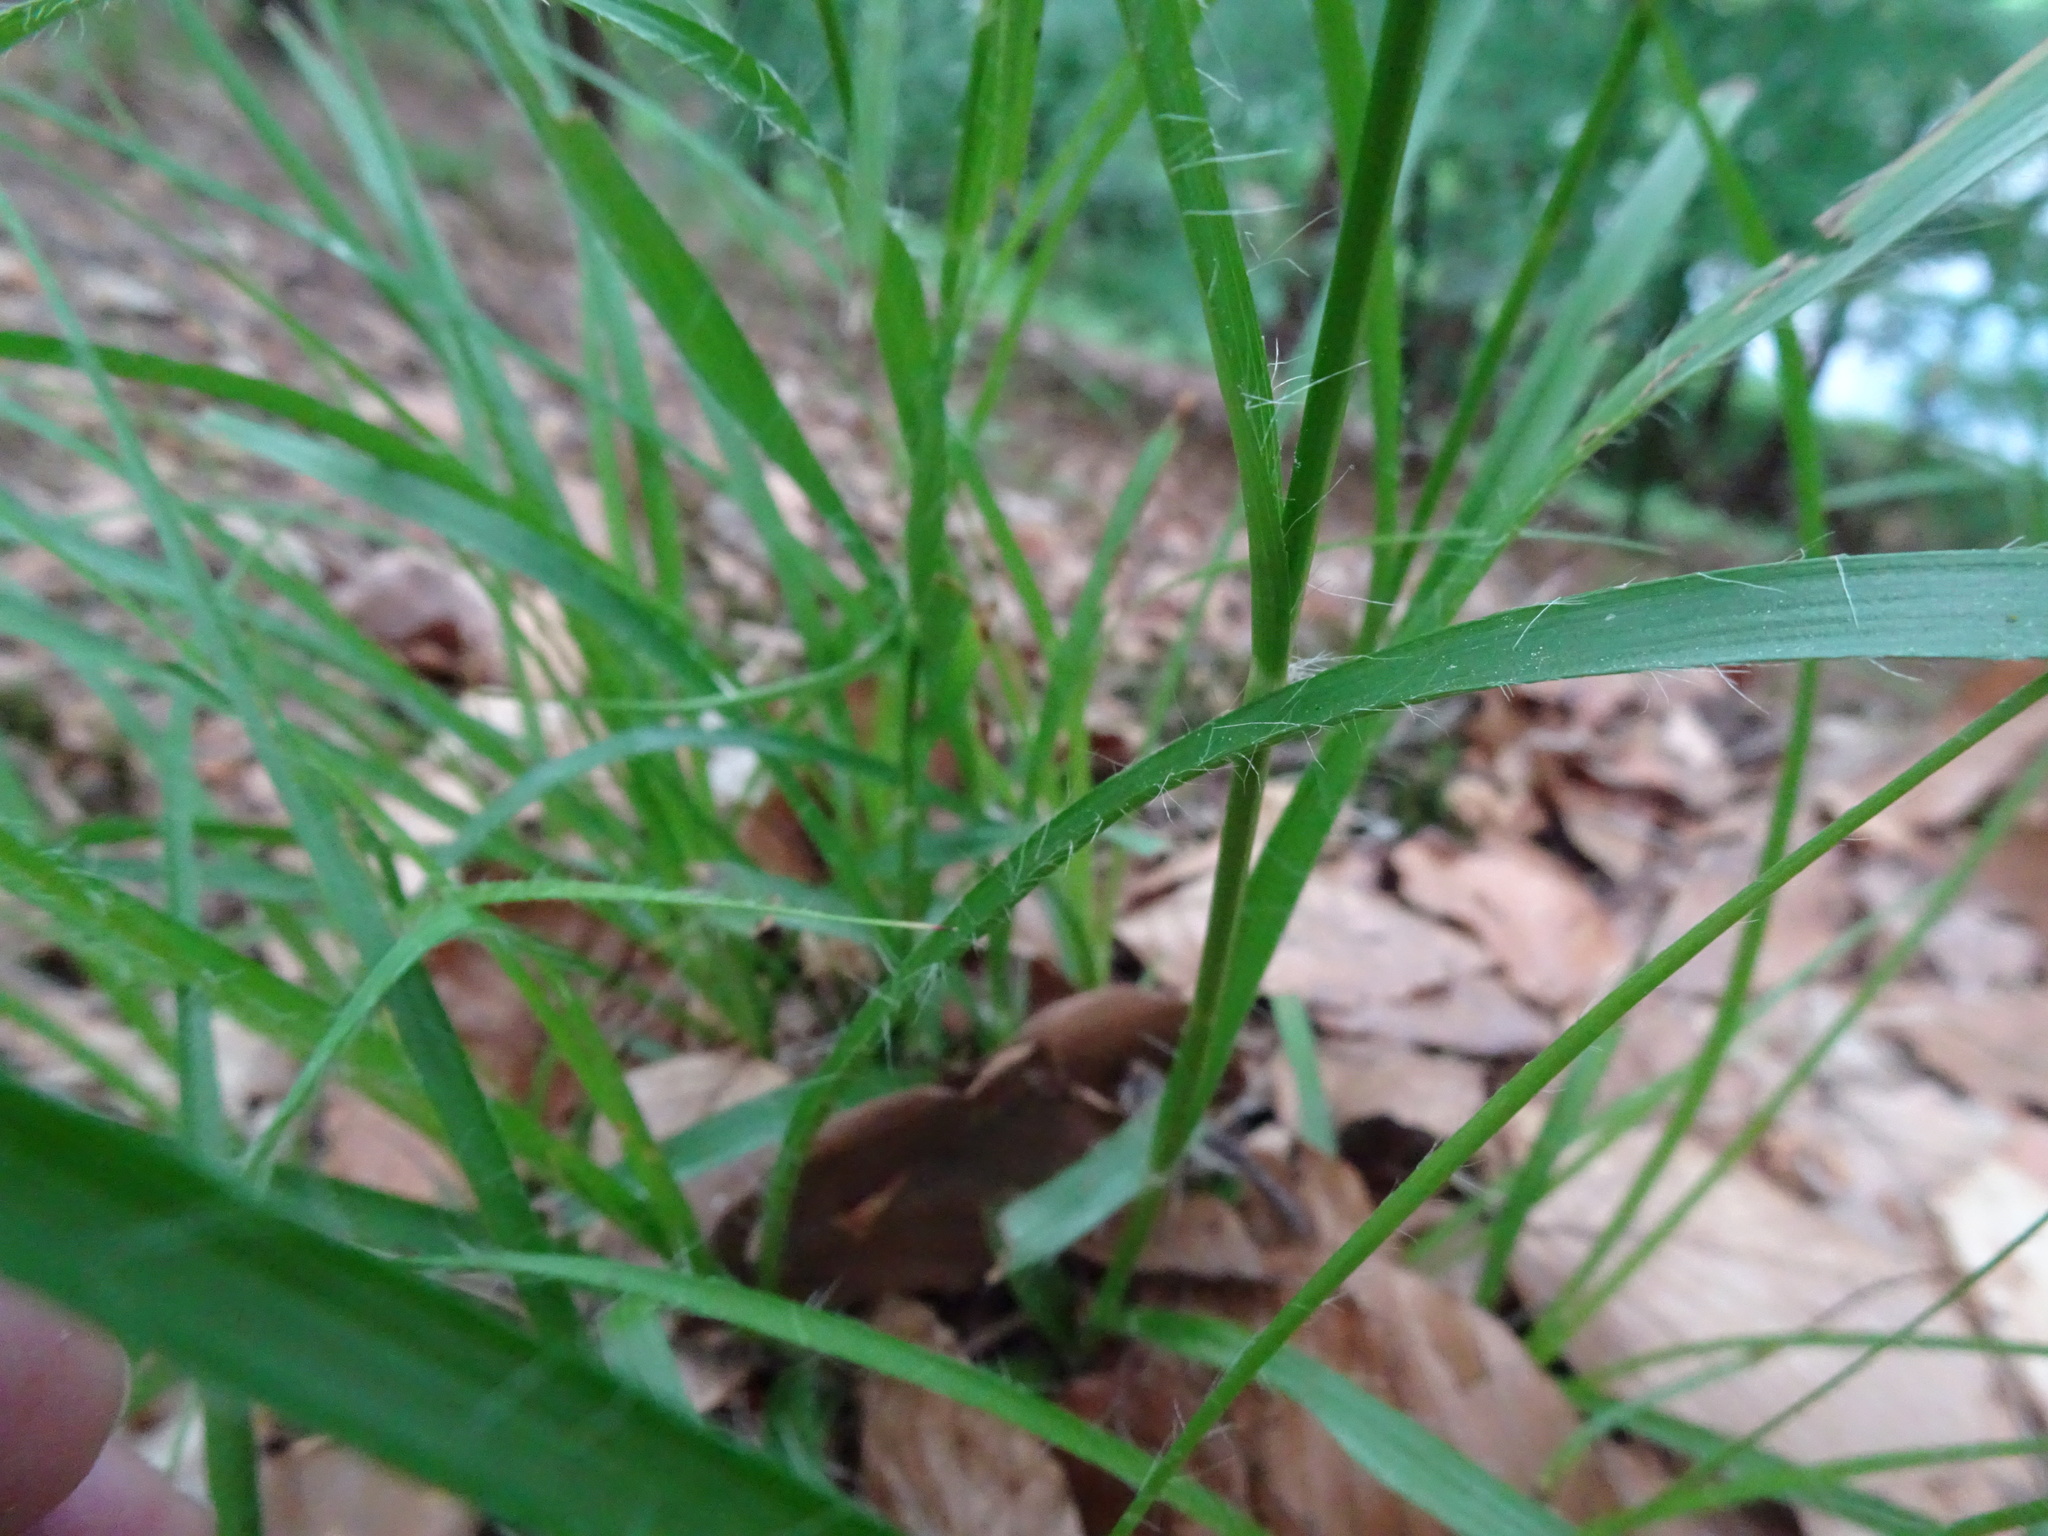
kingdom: Plantae
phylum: Tracheophyta
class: Liliopsida
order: Poales
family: Juncaceae
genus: Luzula
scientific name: Luzula luzuloides
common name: White wood-rush
